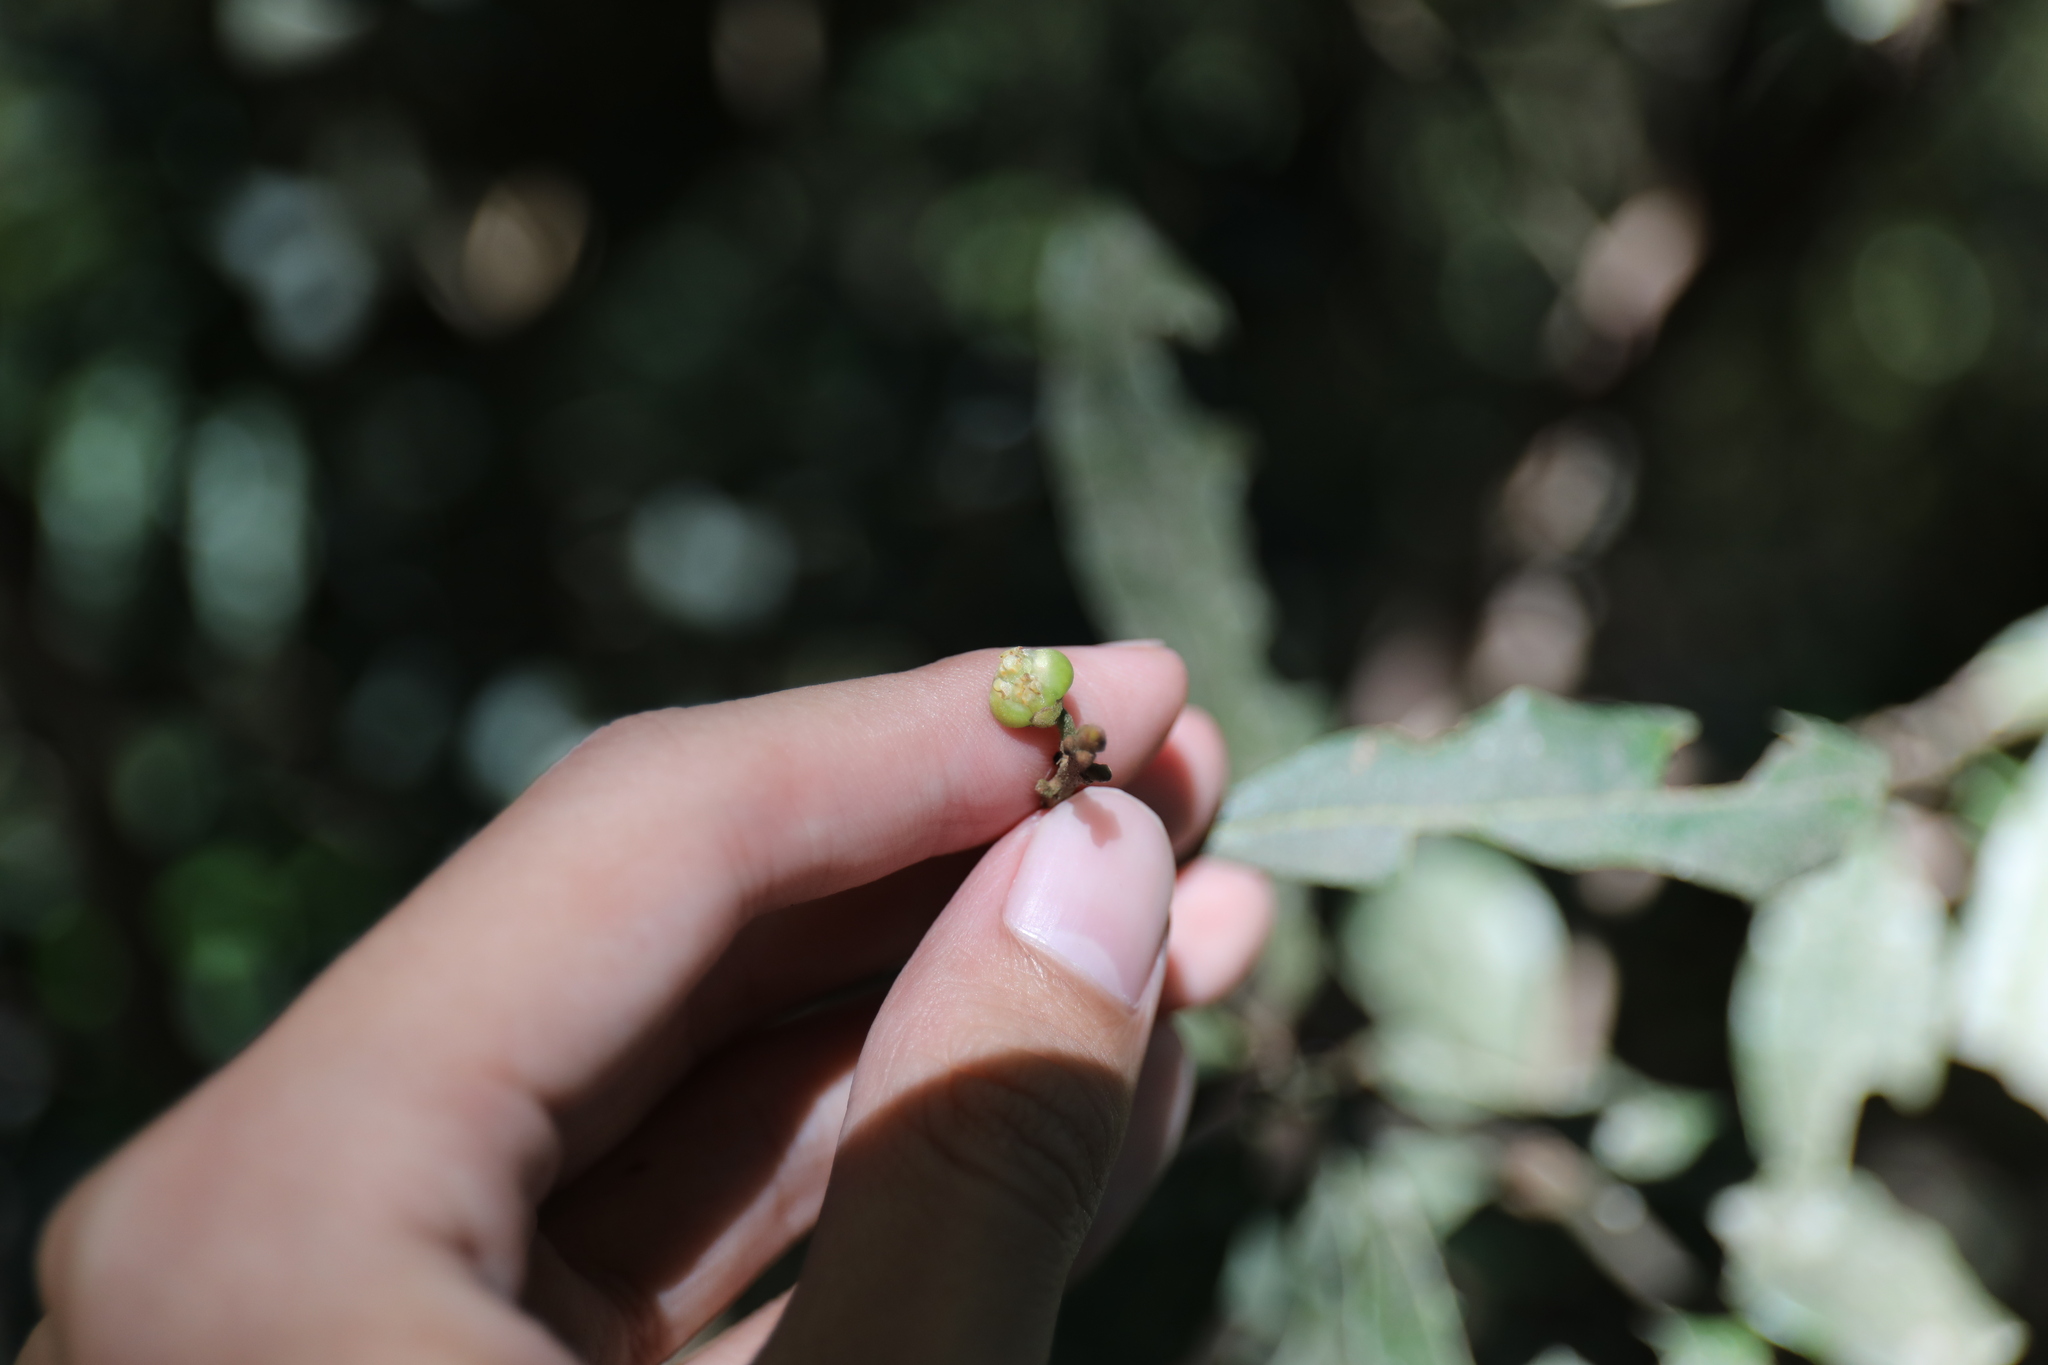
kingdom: Plantae
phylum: Tracheophyta
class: Magnoliopsida
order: Laurales
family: Lauraceae
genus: Litsea
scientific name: Litsea akoensis
